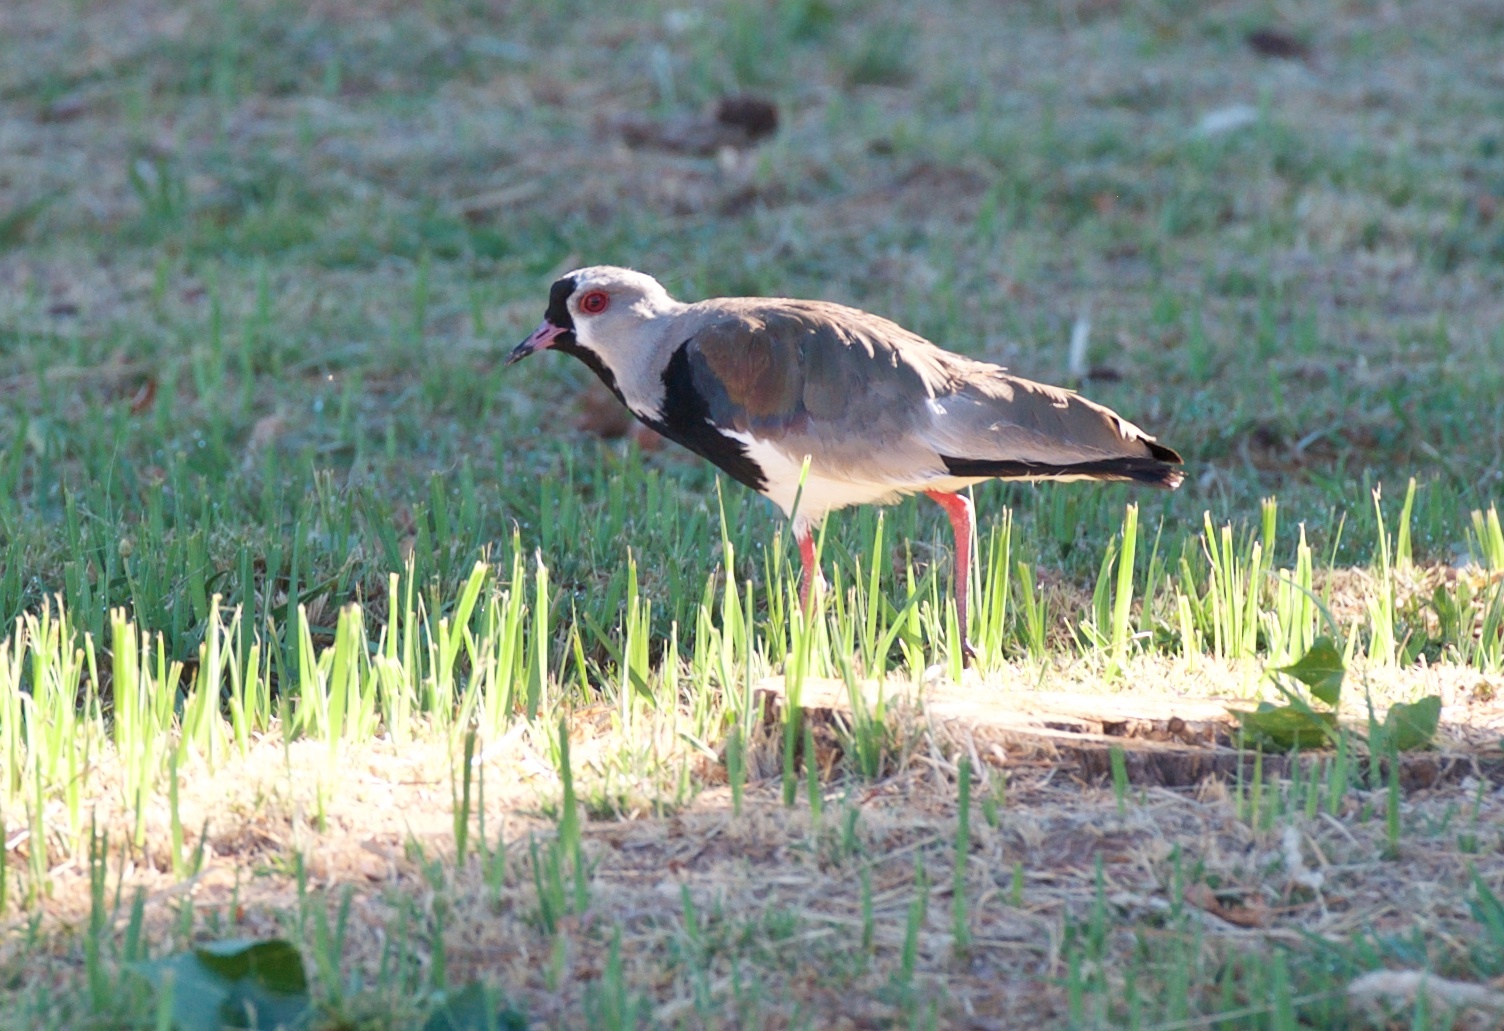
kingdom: Animalia
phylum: Chordata
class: Aves
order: Charadriiformes
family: Charadriidae
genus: Vanellus
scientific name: Vanellus chilensis
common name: Southern lapwing
